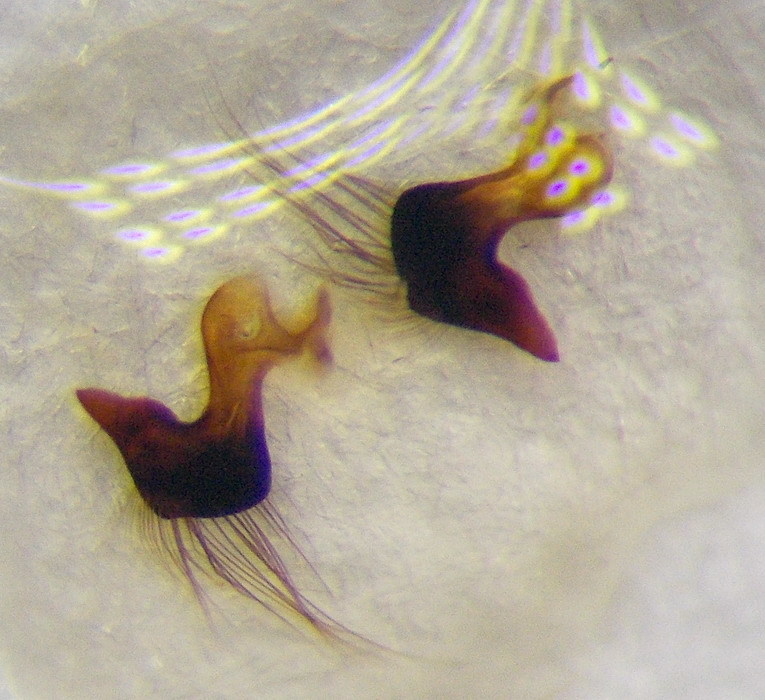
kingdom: Animalia
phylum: Arthropoda
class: Insecta
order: Hemiptera
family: Notonectidae
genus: Notonecta
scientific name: Notonecta viridis
